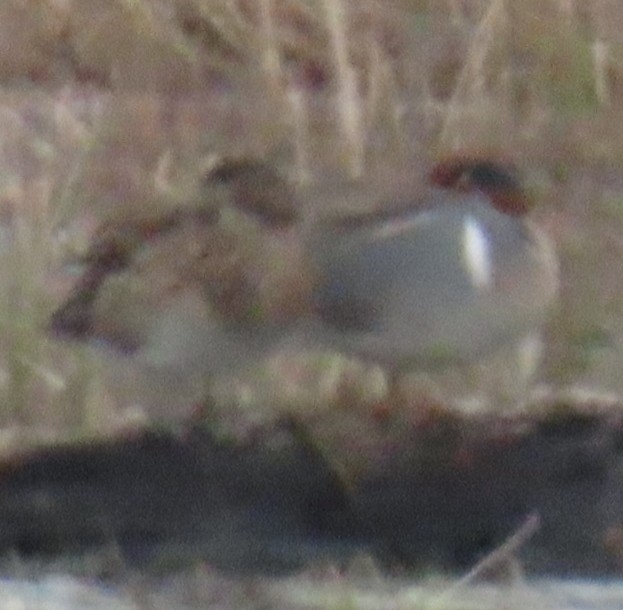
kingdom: Animalia
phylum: Chordata
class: Aves
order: Anseriformes
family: Anatidae
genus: Anas
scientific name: Anas crecca
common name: Eurasian teal
